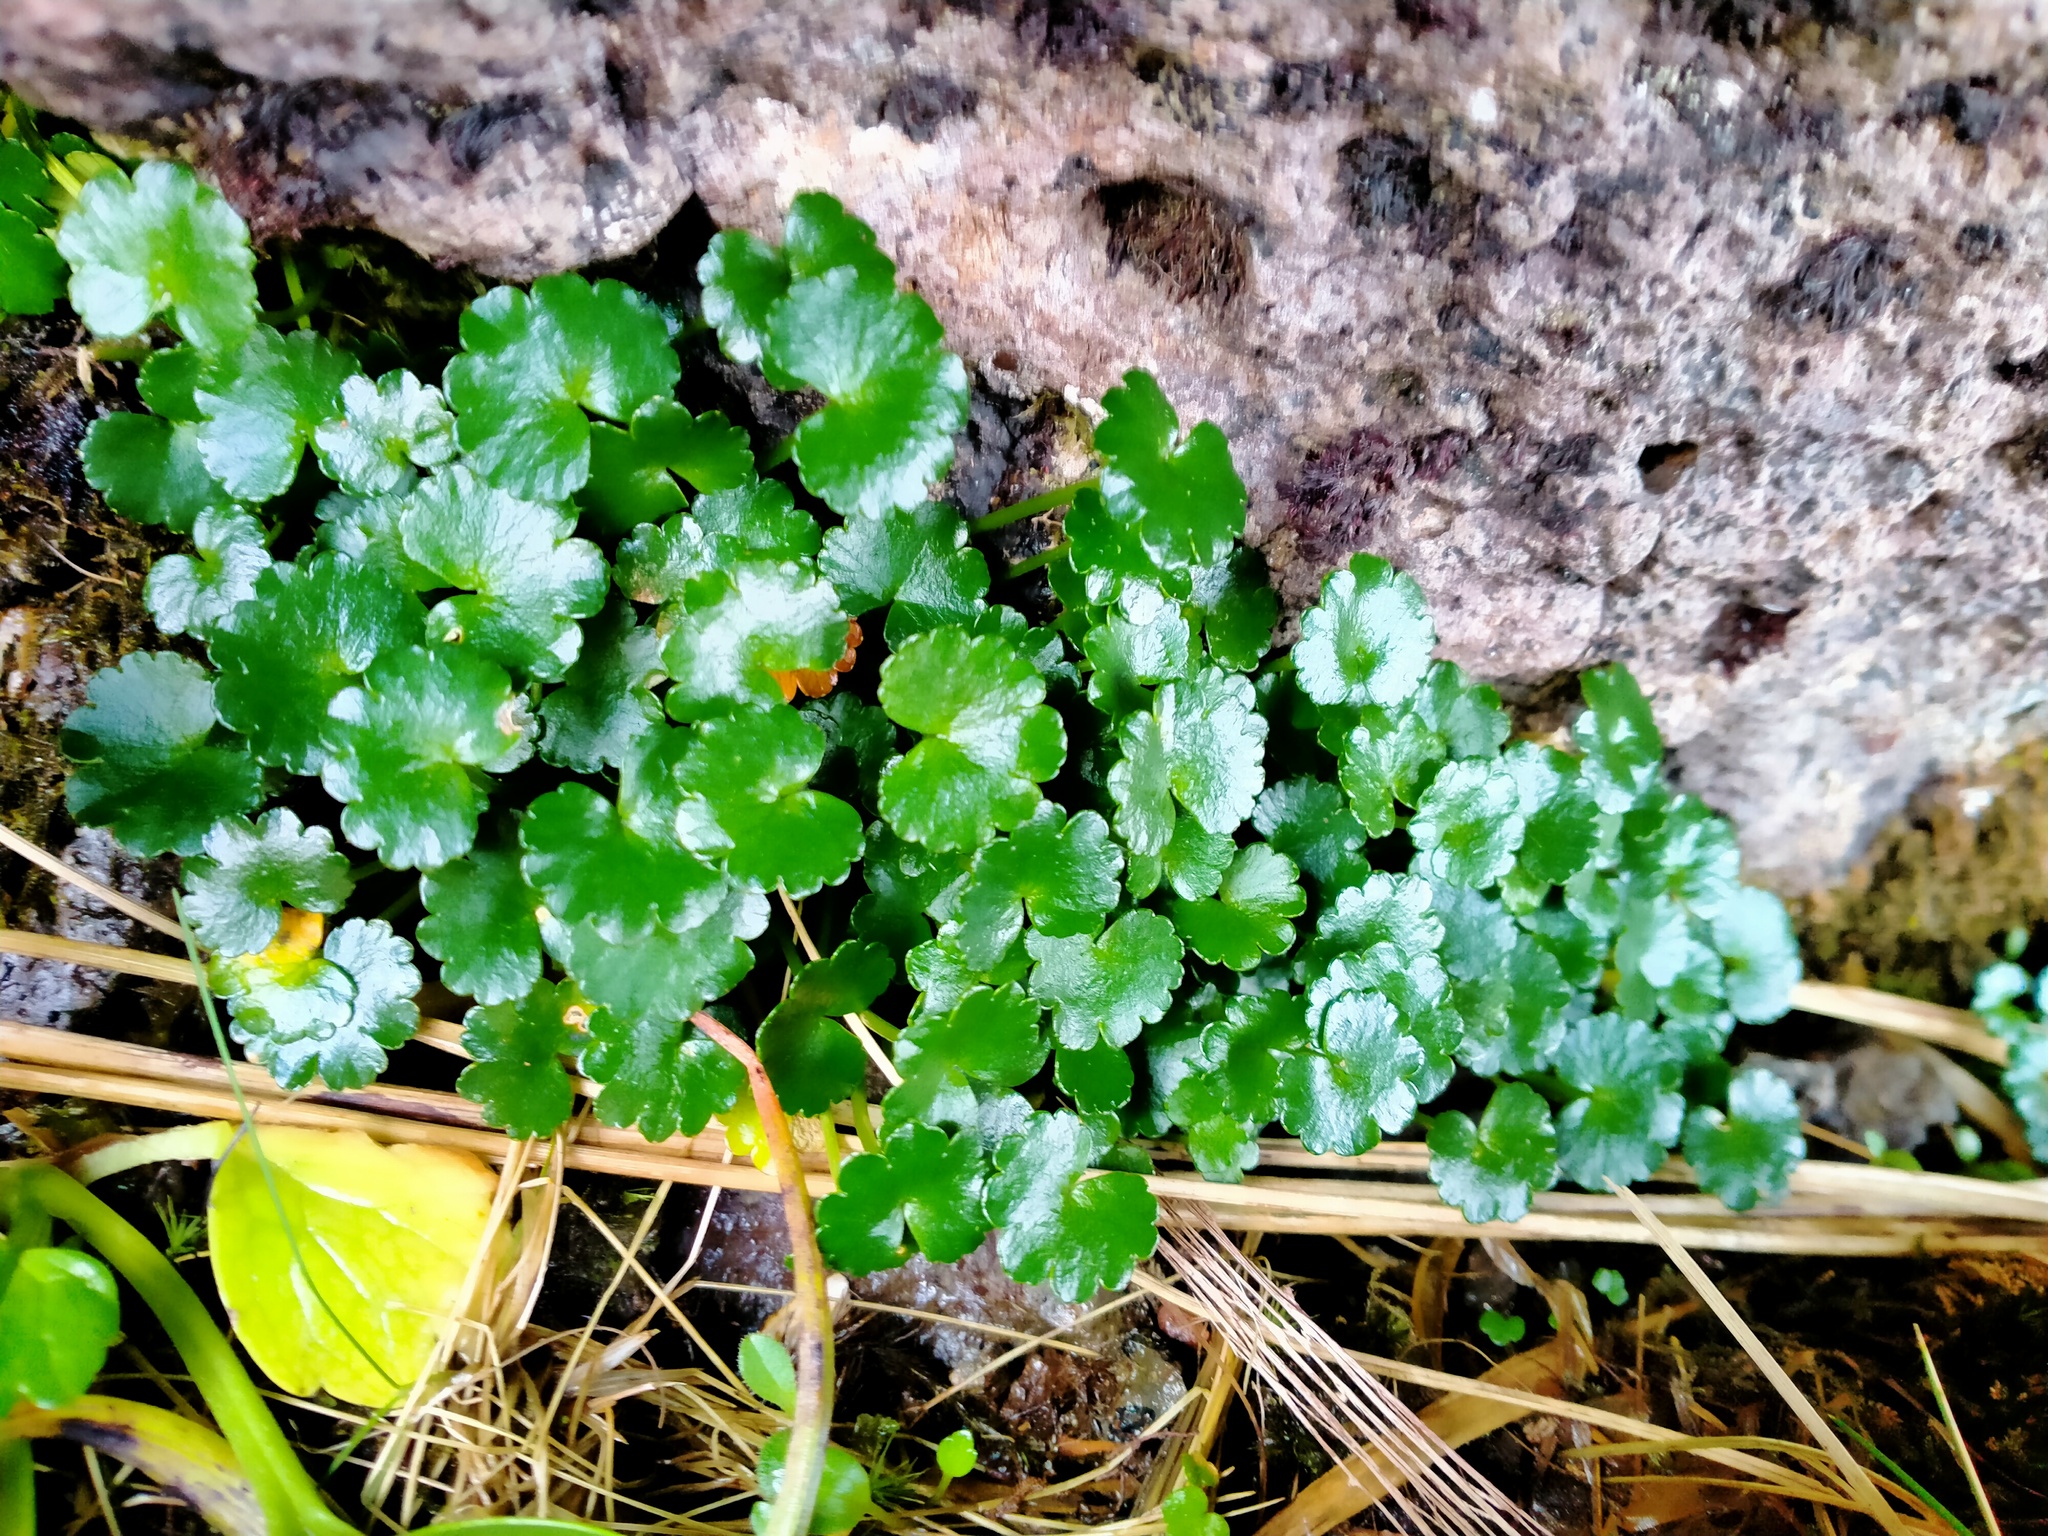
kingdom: Plantae
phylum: Tracheophyta
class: Magnoliopsida
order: Apiales
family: Apiaceae
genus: Azorella
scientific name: Azorella schizeilema
